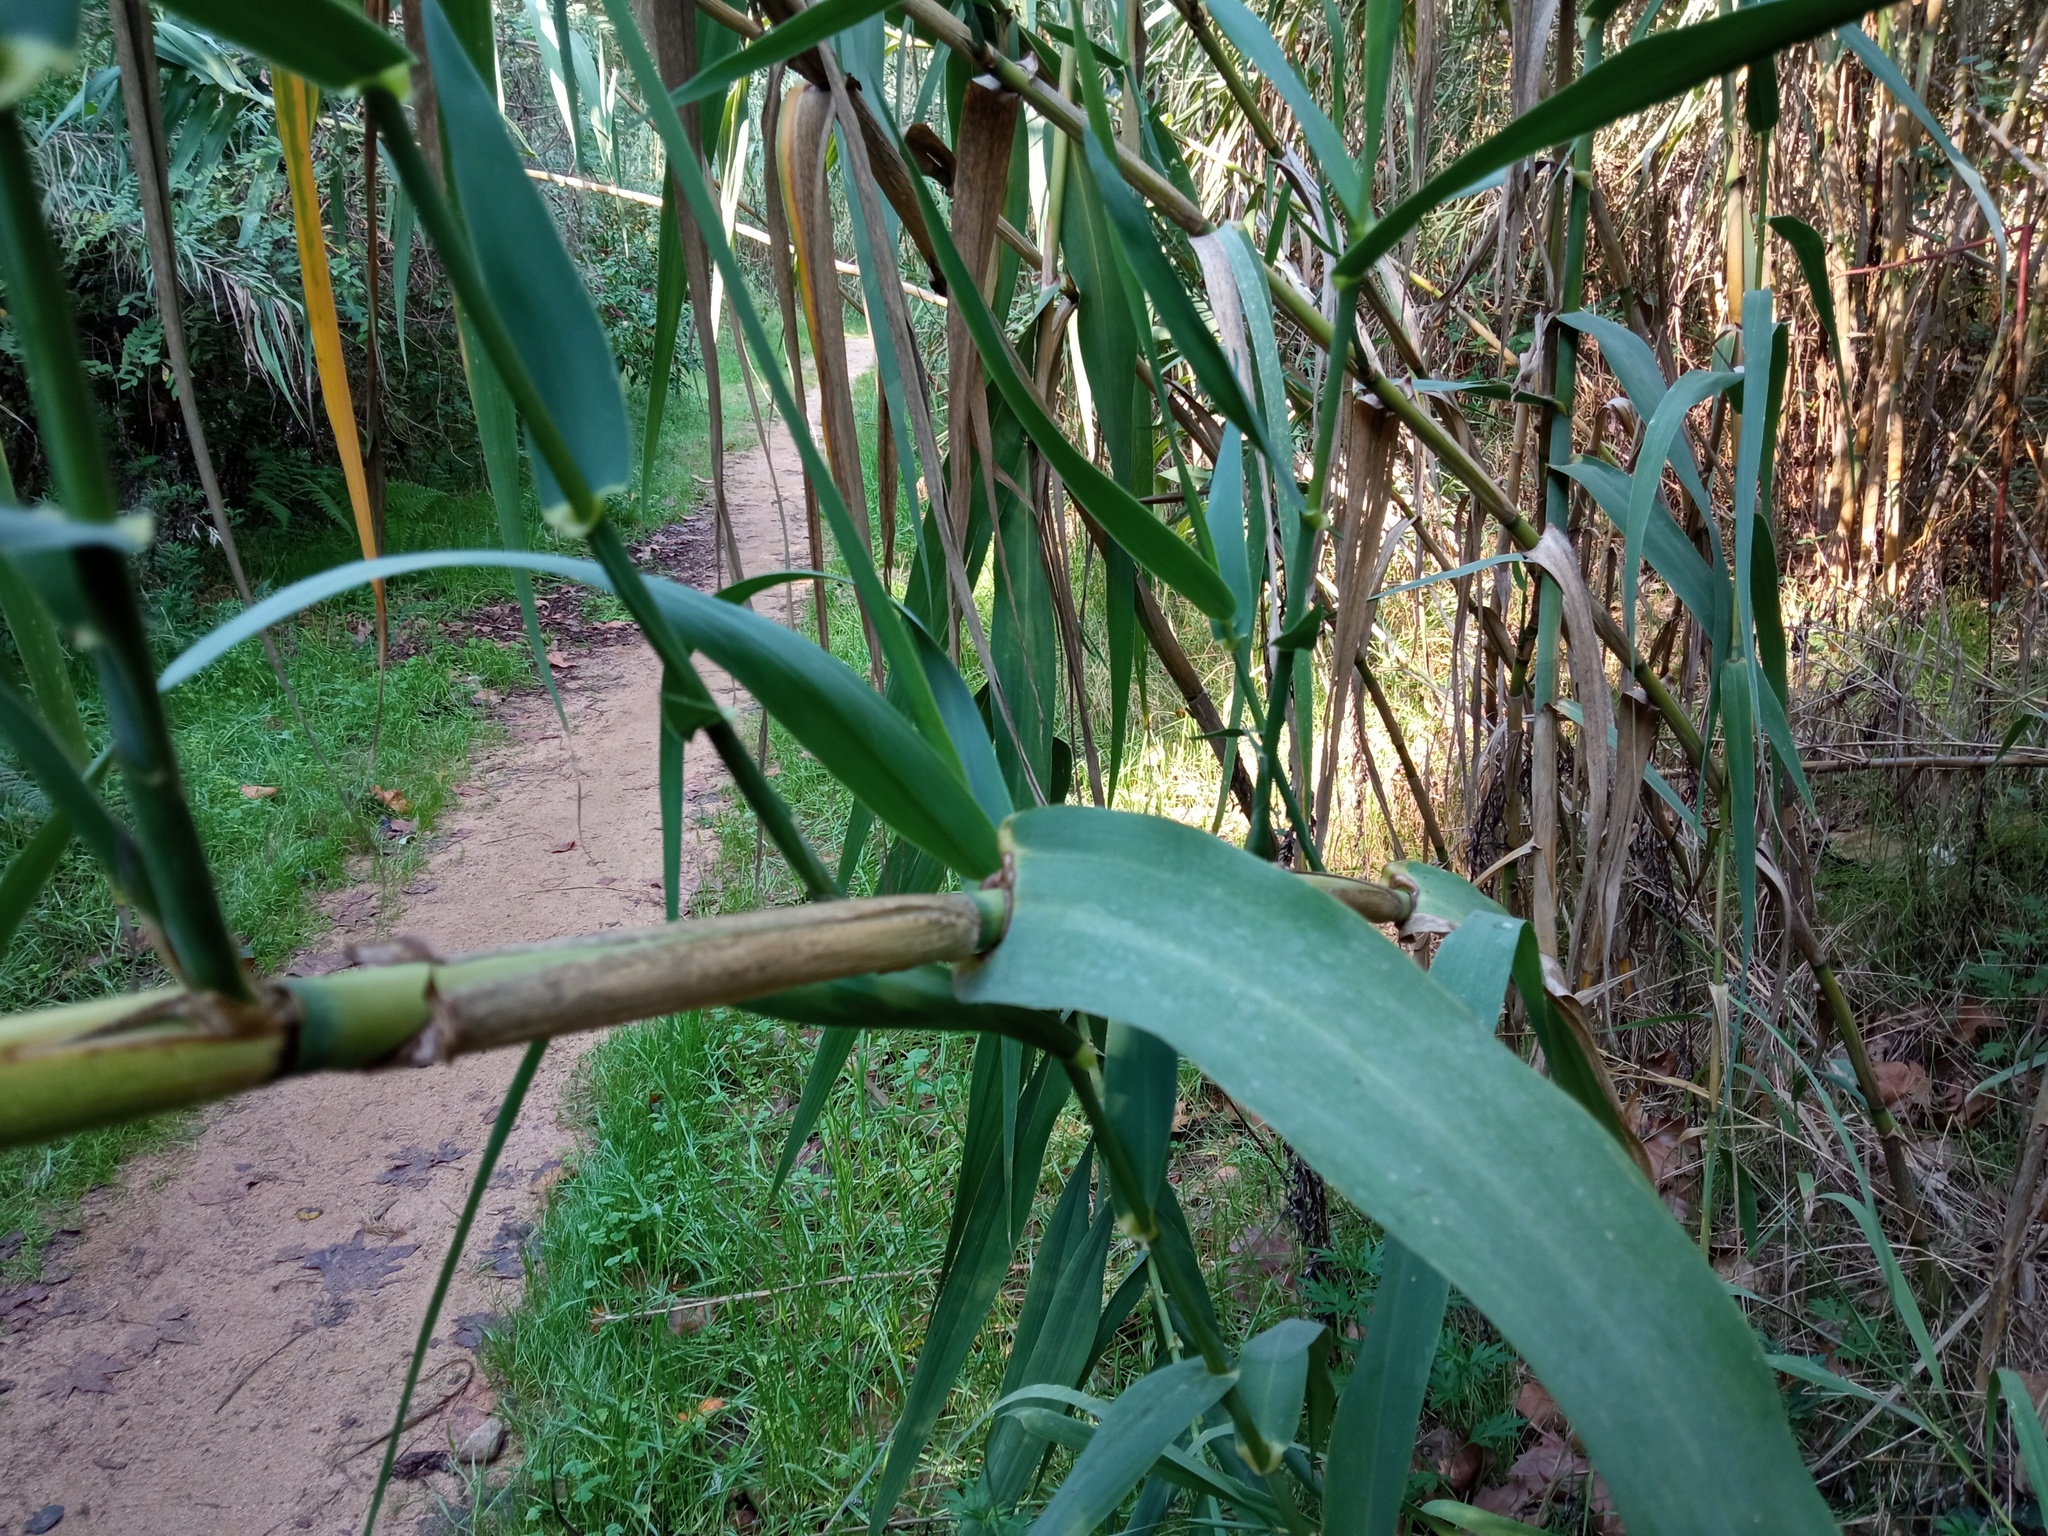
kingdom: Plantae
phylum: Tracheophyta
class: Liliopsida
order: Poales
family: Poaceae
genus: Arundo
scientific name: Arundo donax
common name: Giant reed
